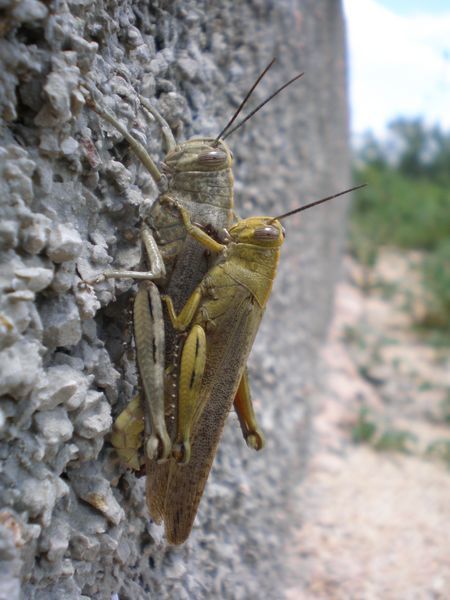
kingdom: Animalia
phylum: Arthropoda
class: Insecta
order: Orthoptera
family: Acrididae
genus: Anacridium
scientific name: Anacridium aegyptium
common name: Egyptian grasshopper
